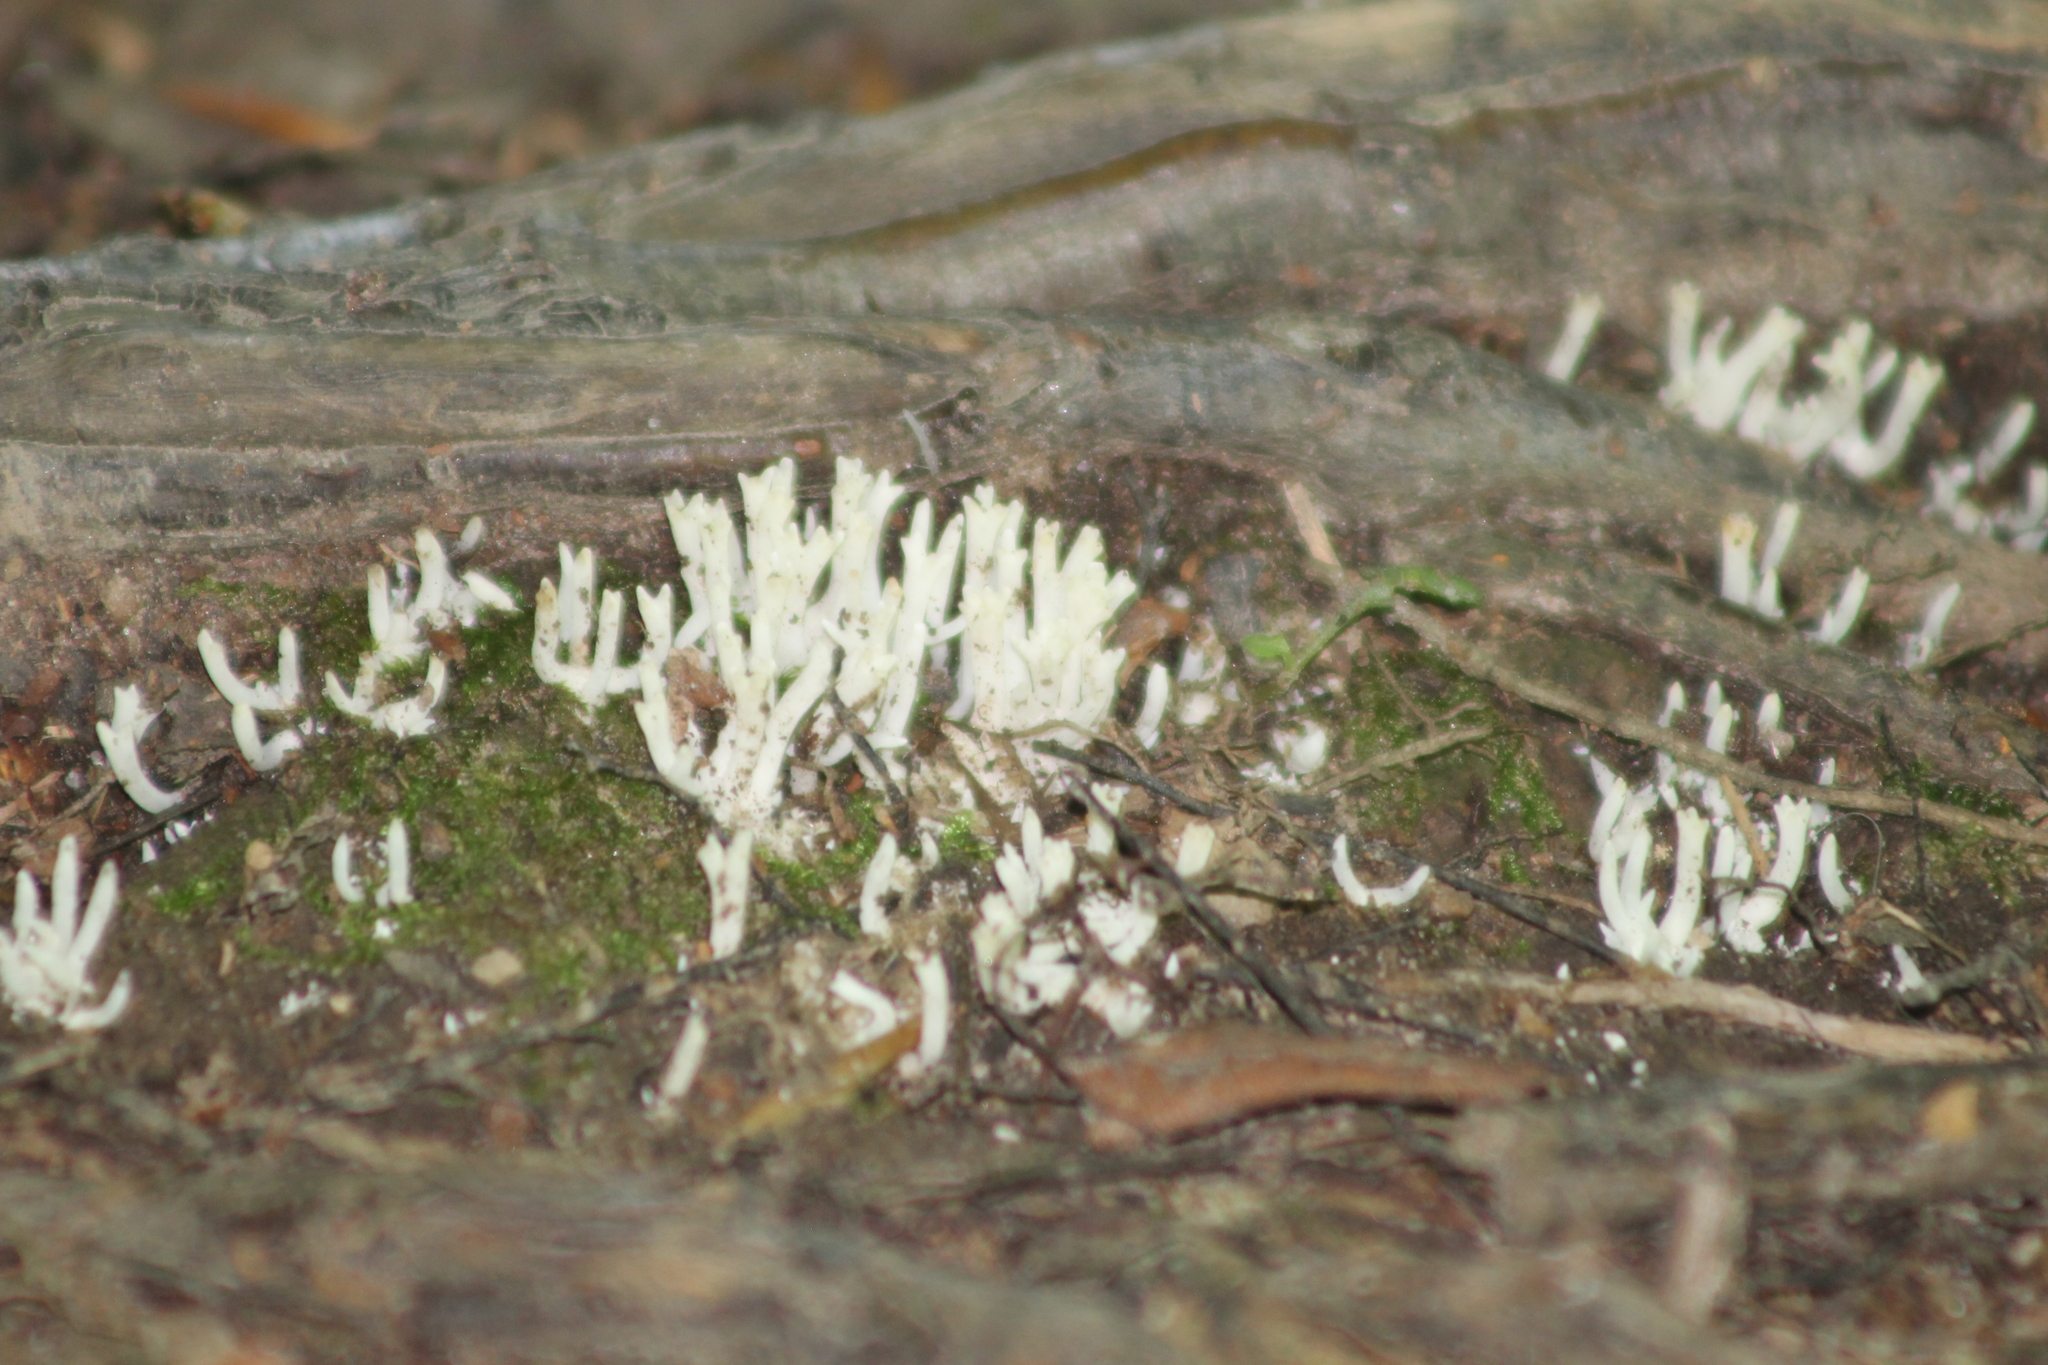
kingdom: Fungi
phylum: Basidiomycota
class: Agaricomycetes
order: Agaricales
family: Clavariaceae
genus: Ramariopsis
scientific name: Ramariopsis kunzei
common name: Ivory coral
